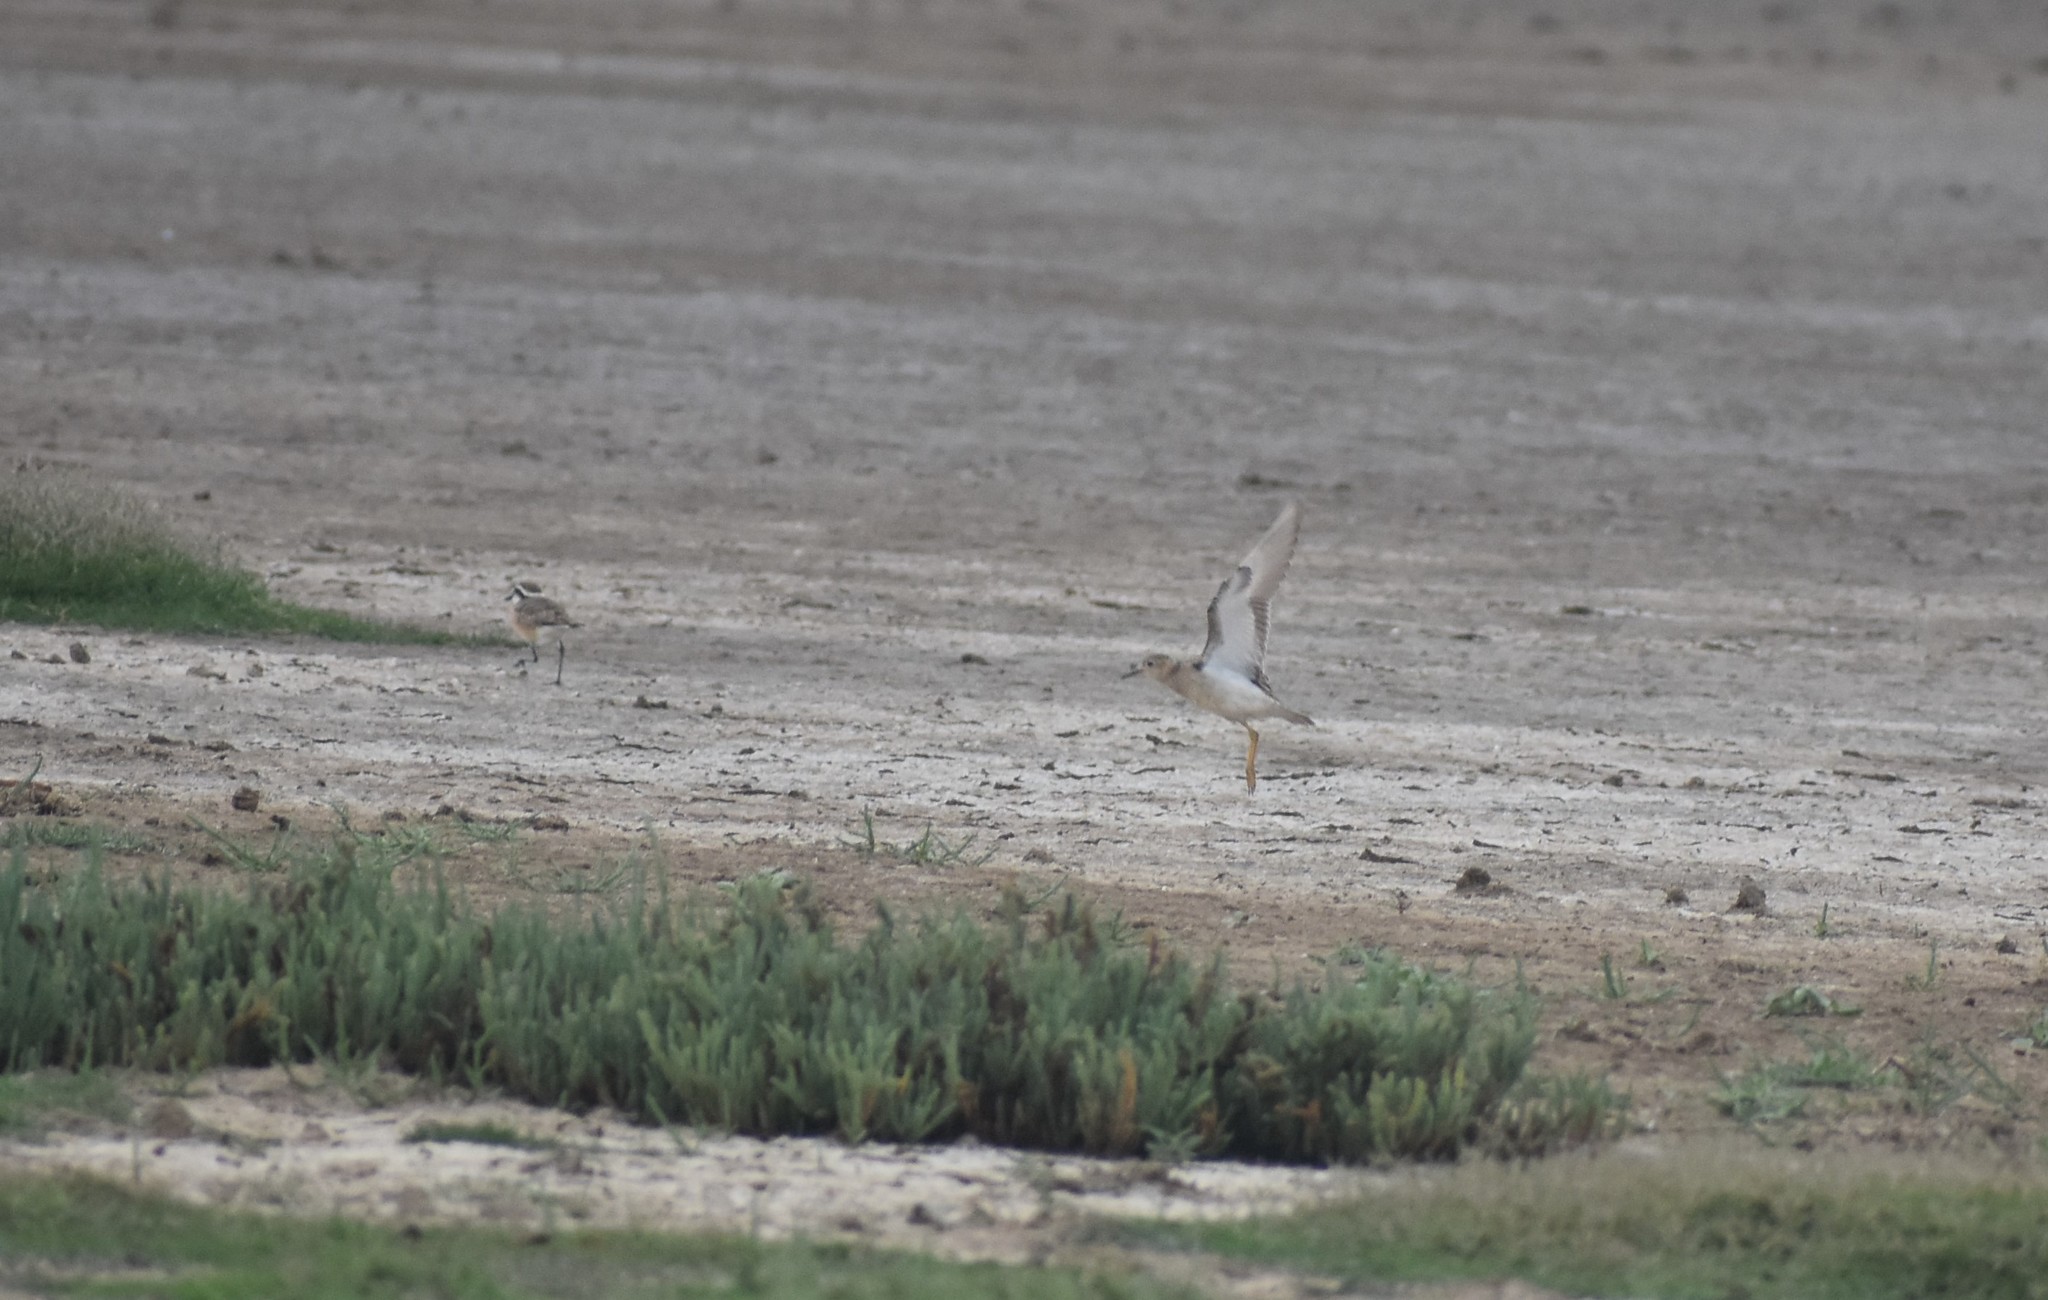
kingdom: Animalia
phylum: Chordata
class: Aves
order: Charadriiformes
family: Scolopacidae
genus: Calidris
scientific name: Calidris subruficollis
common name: Buff-breasted sandpiper
